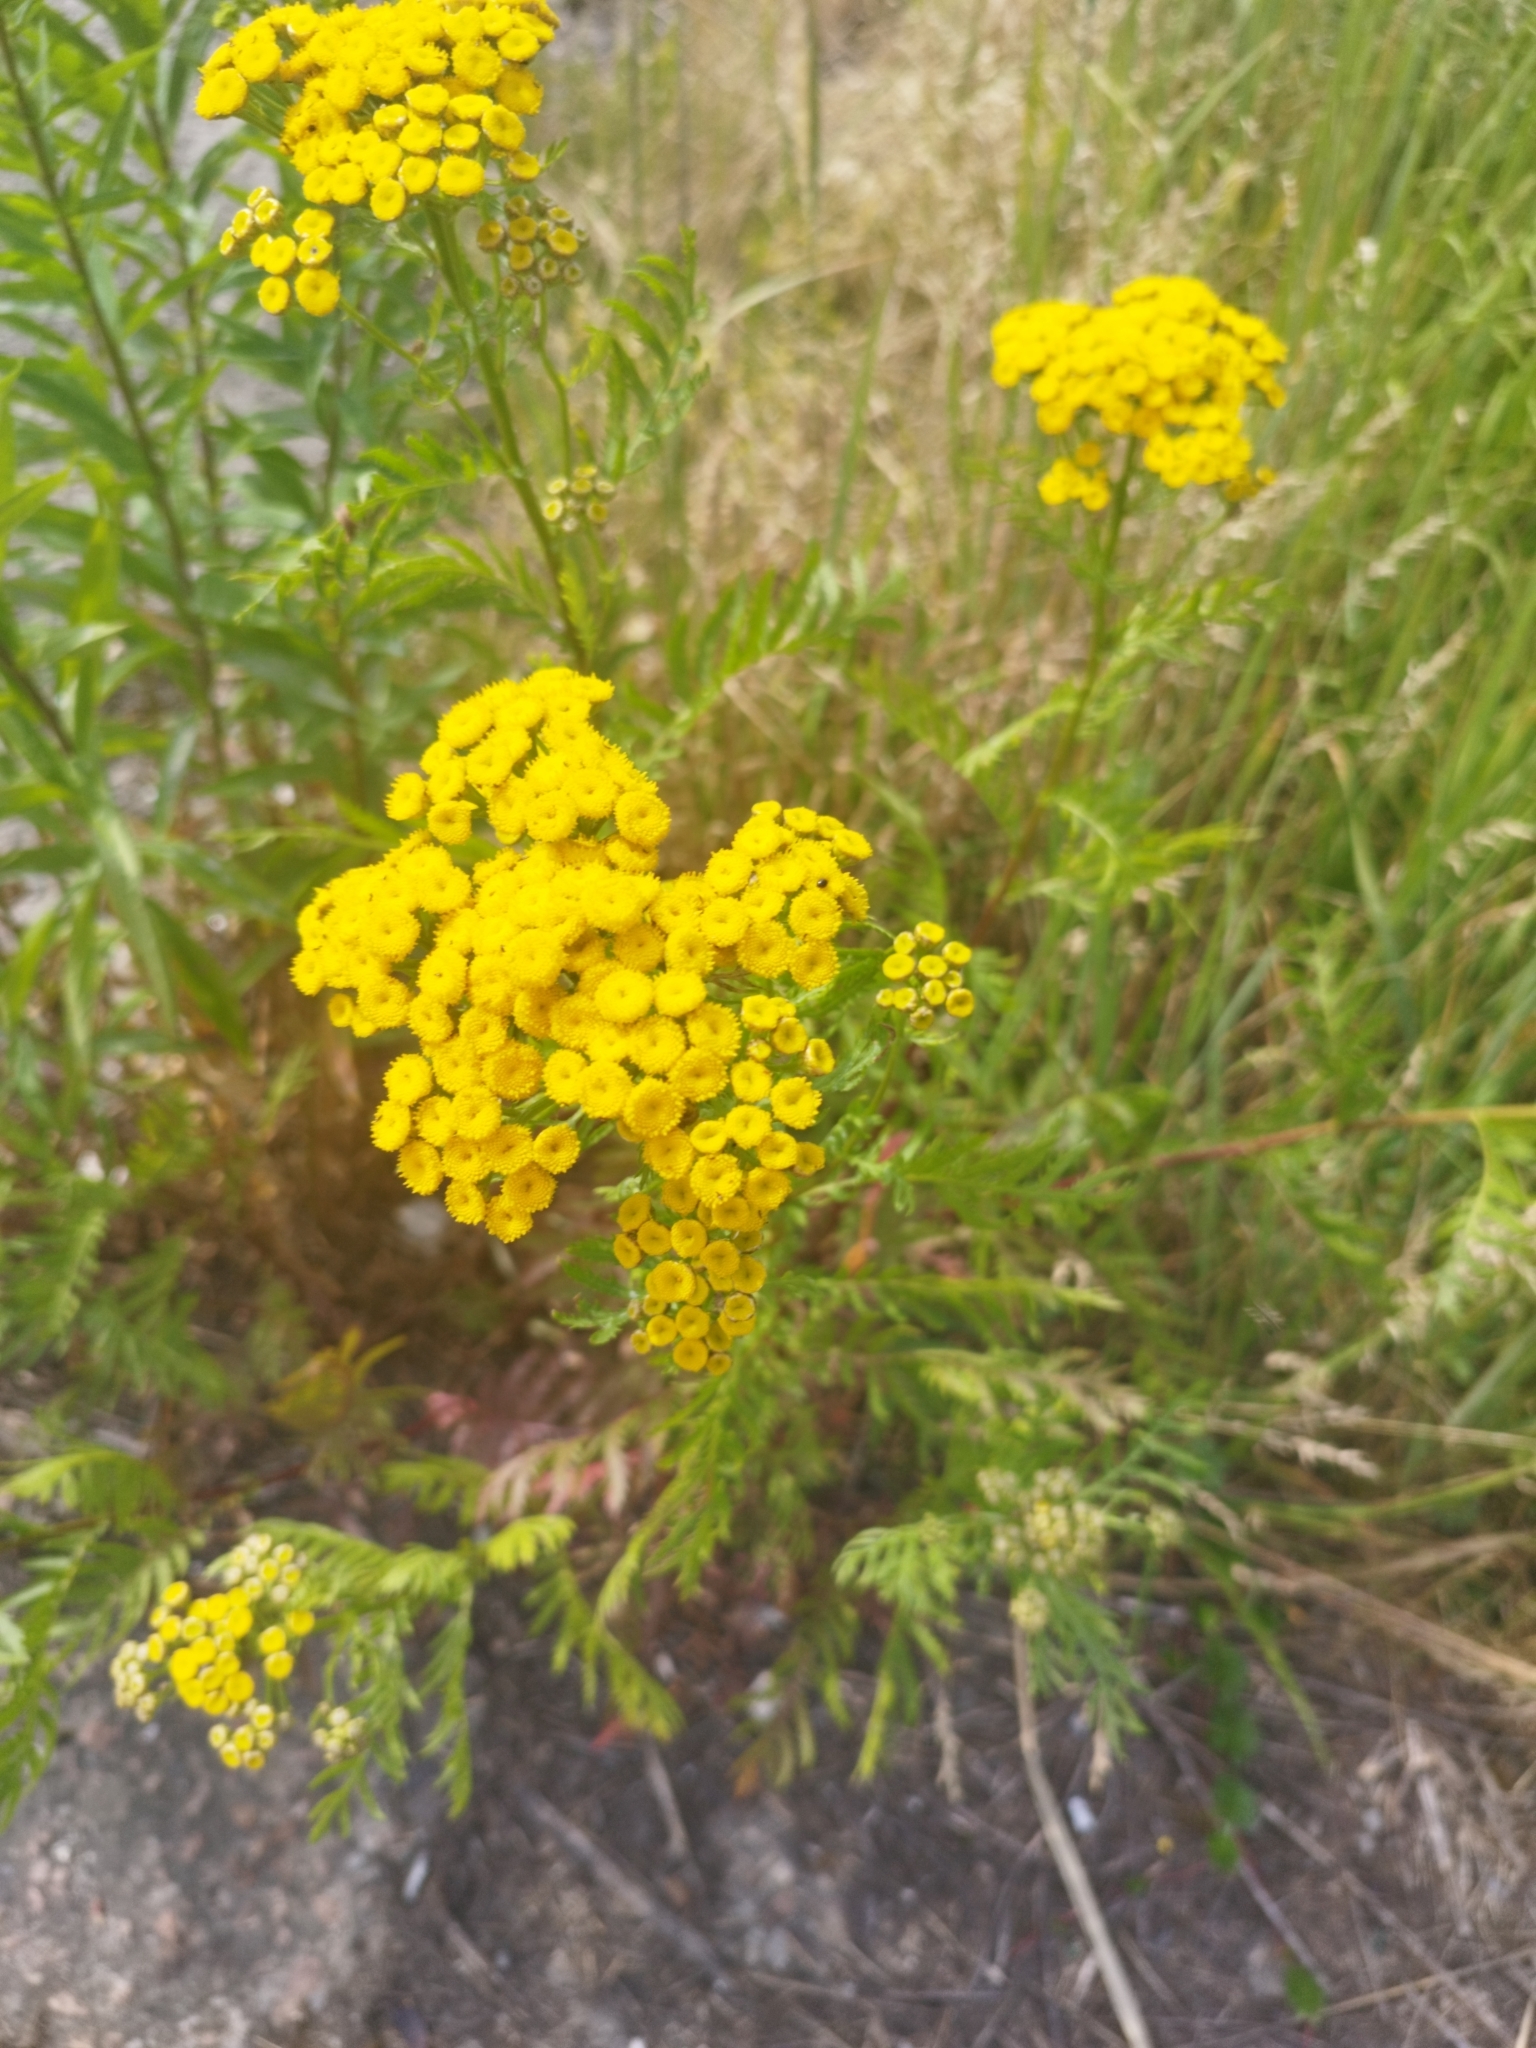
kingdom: Plantae
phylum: Tracheophyta
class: Magnoliopsida
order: Asterales
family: Asteraceae
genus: Tanacetum
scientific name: Tanacetum vulgare
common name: Common tansy
